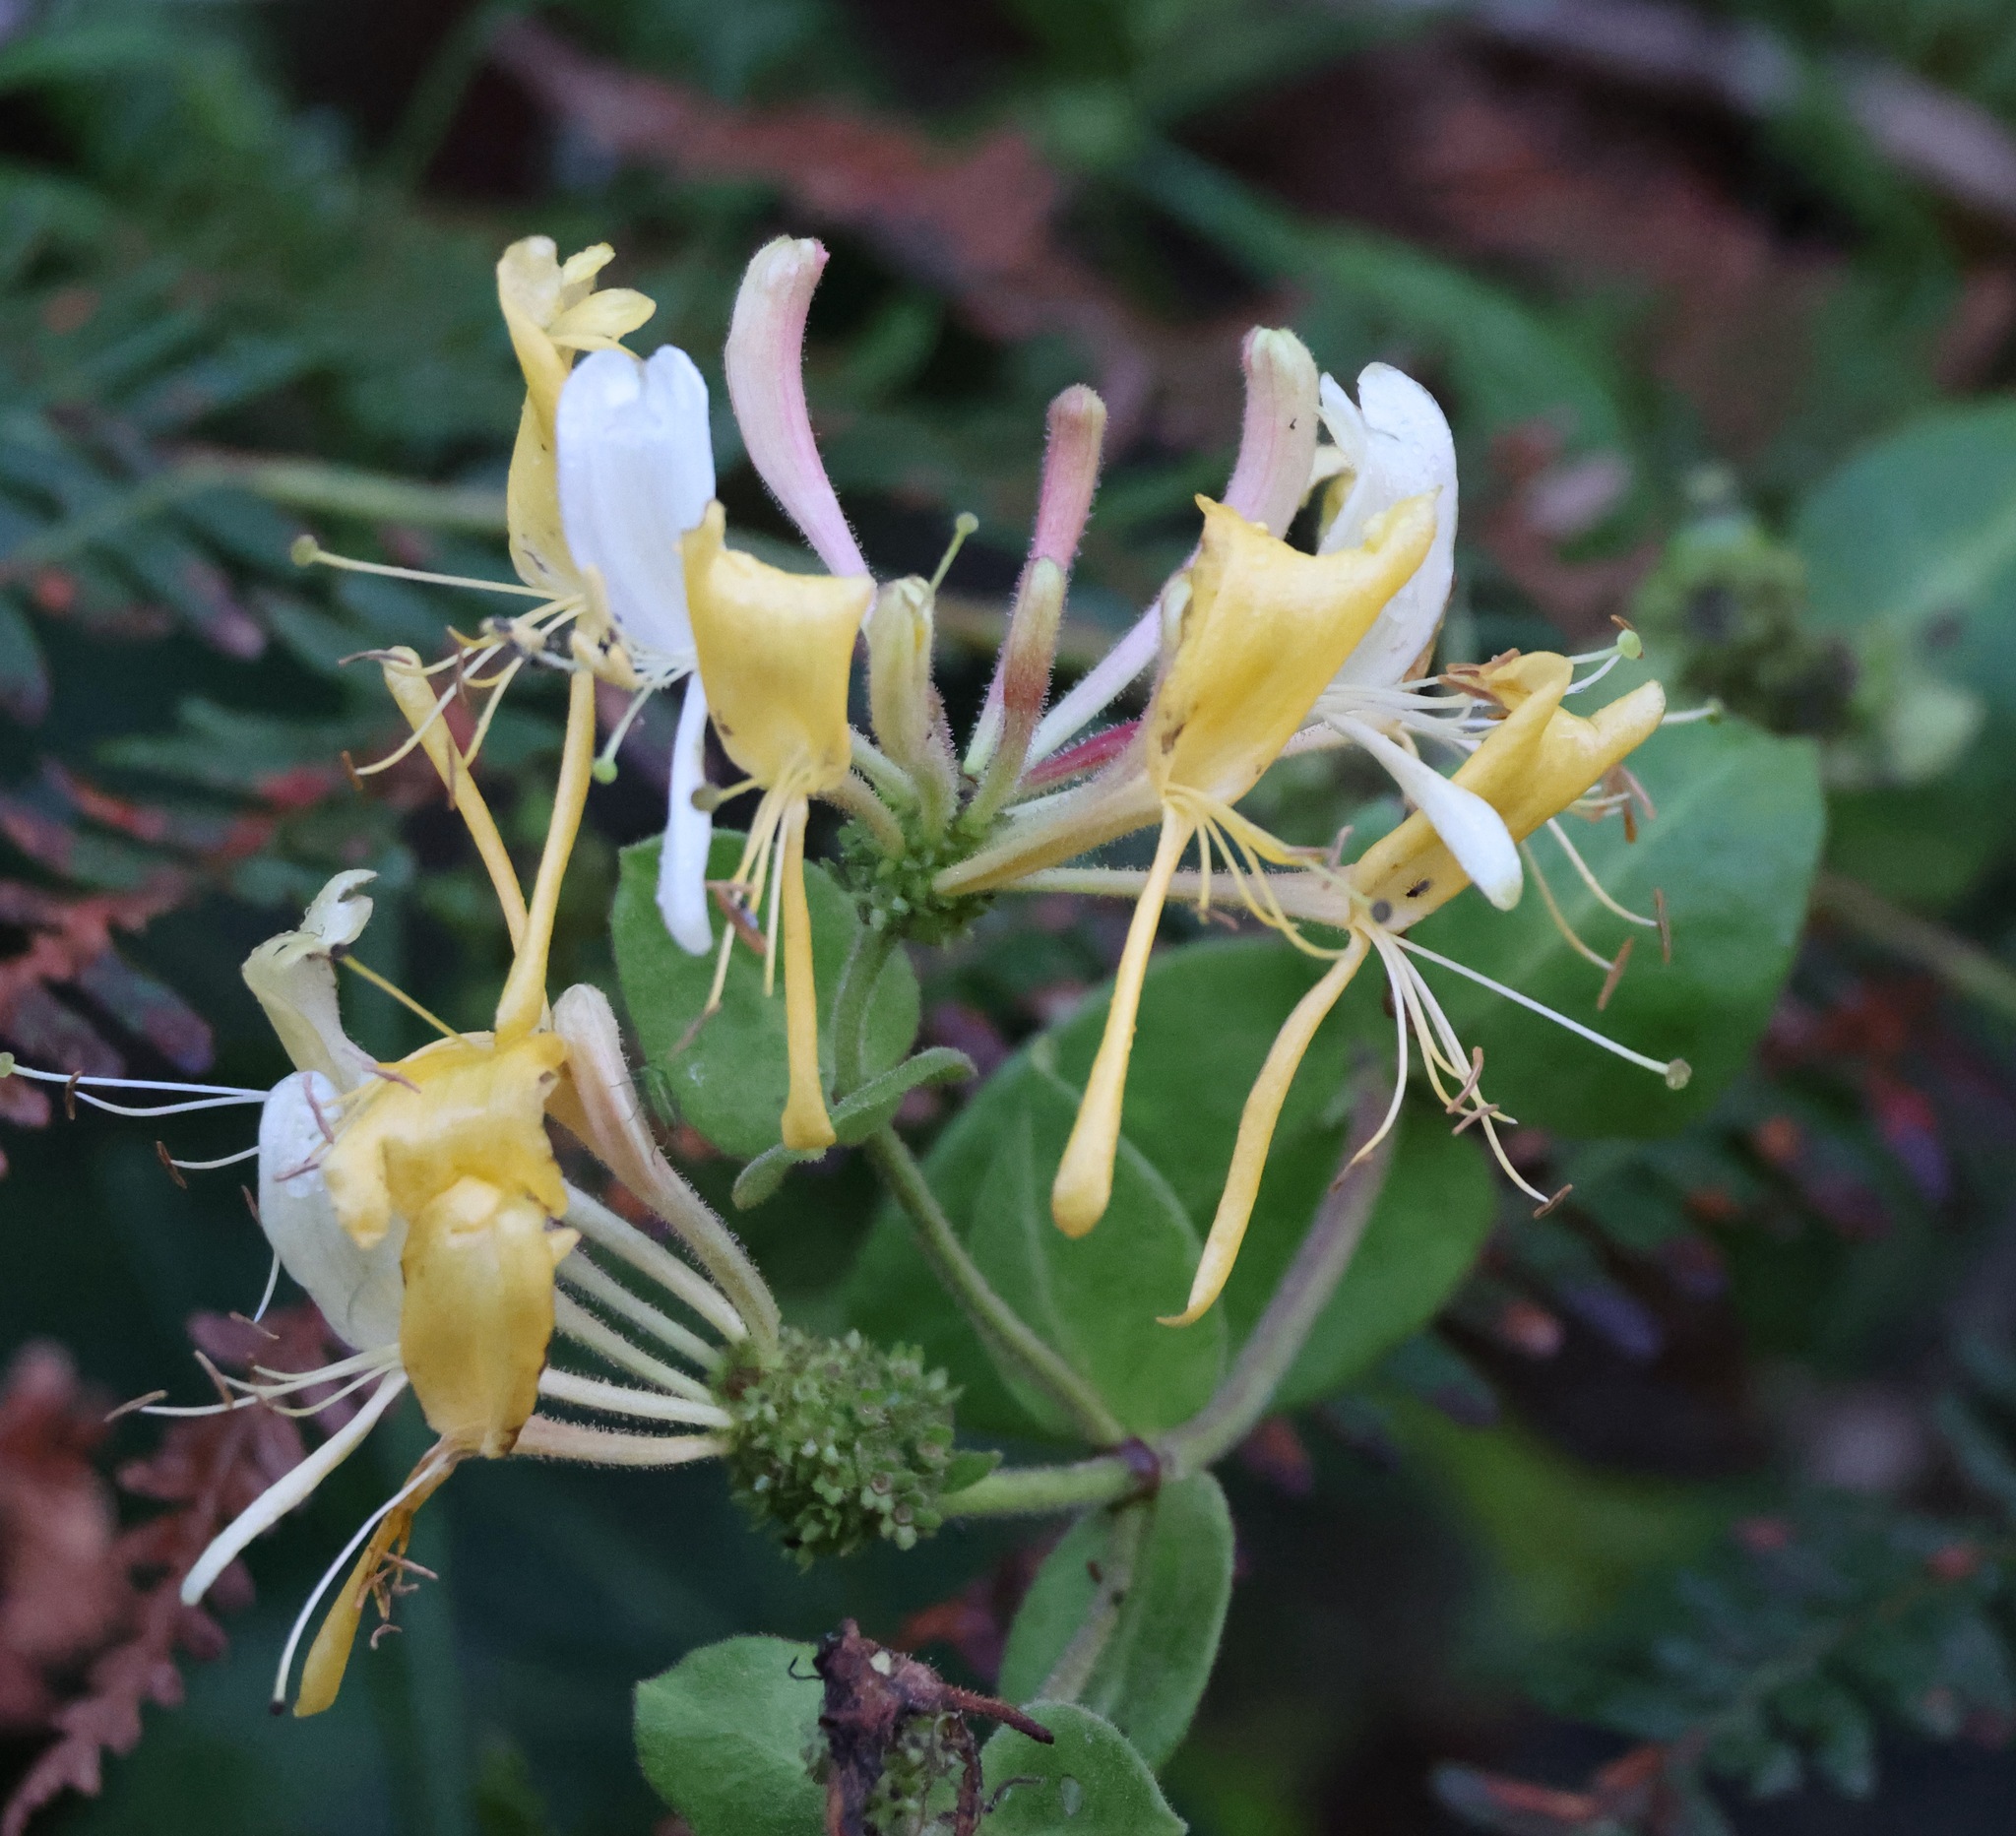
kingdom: Plantae
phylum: Tracheophyta
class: Magnoliopsida
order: Dipsacales
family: Caprifoliaceae
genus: Lonicera
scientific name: Lonicera periclymenum
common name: European honeysuckle
